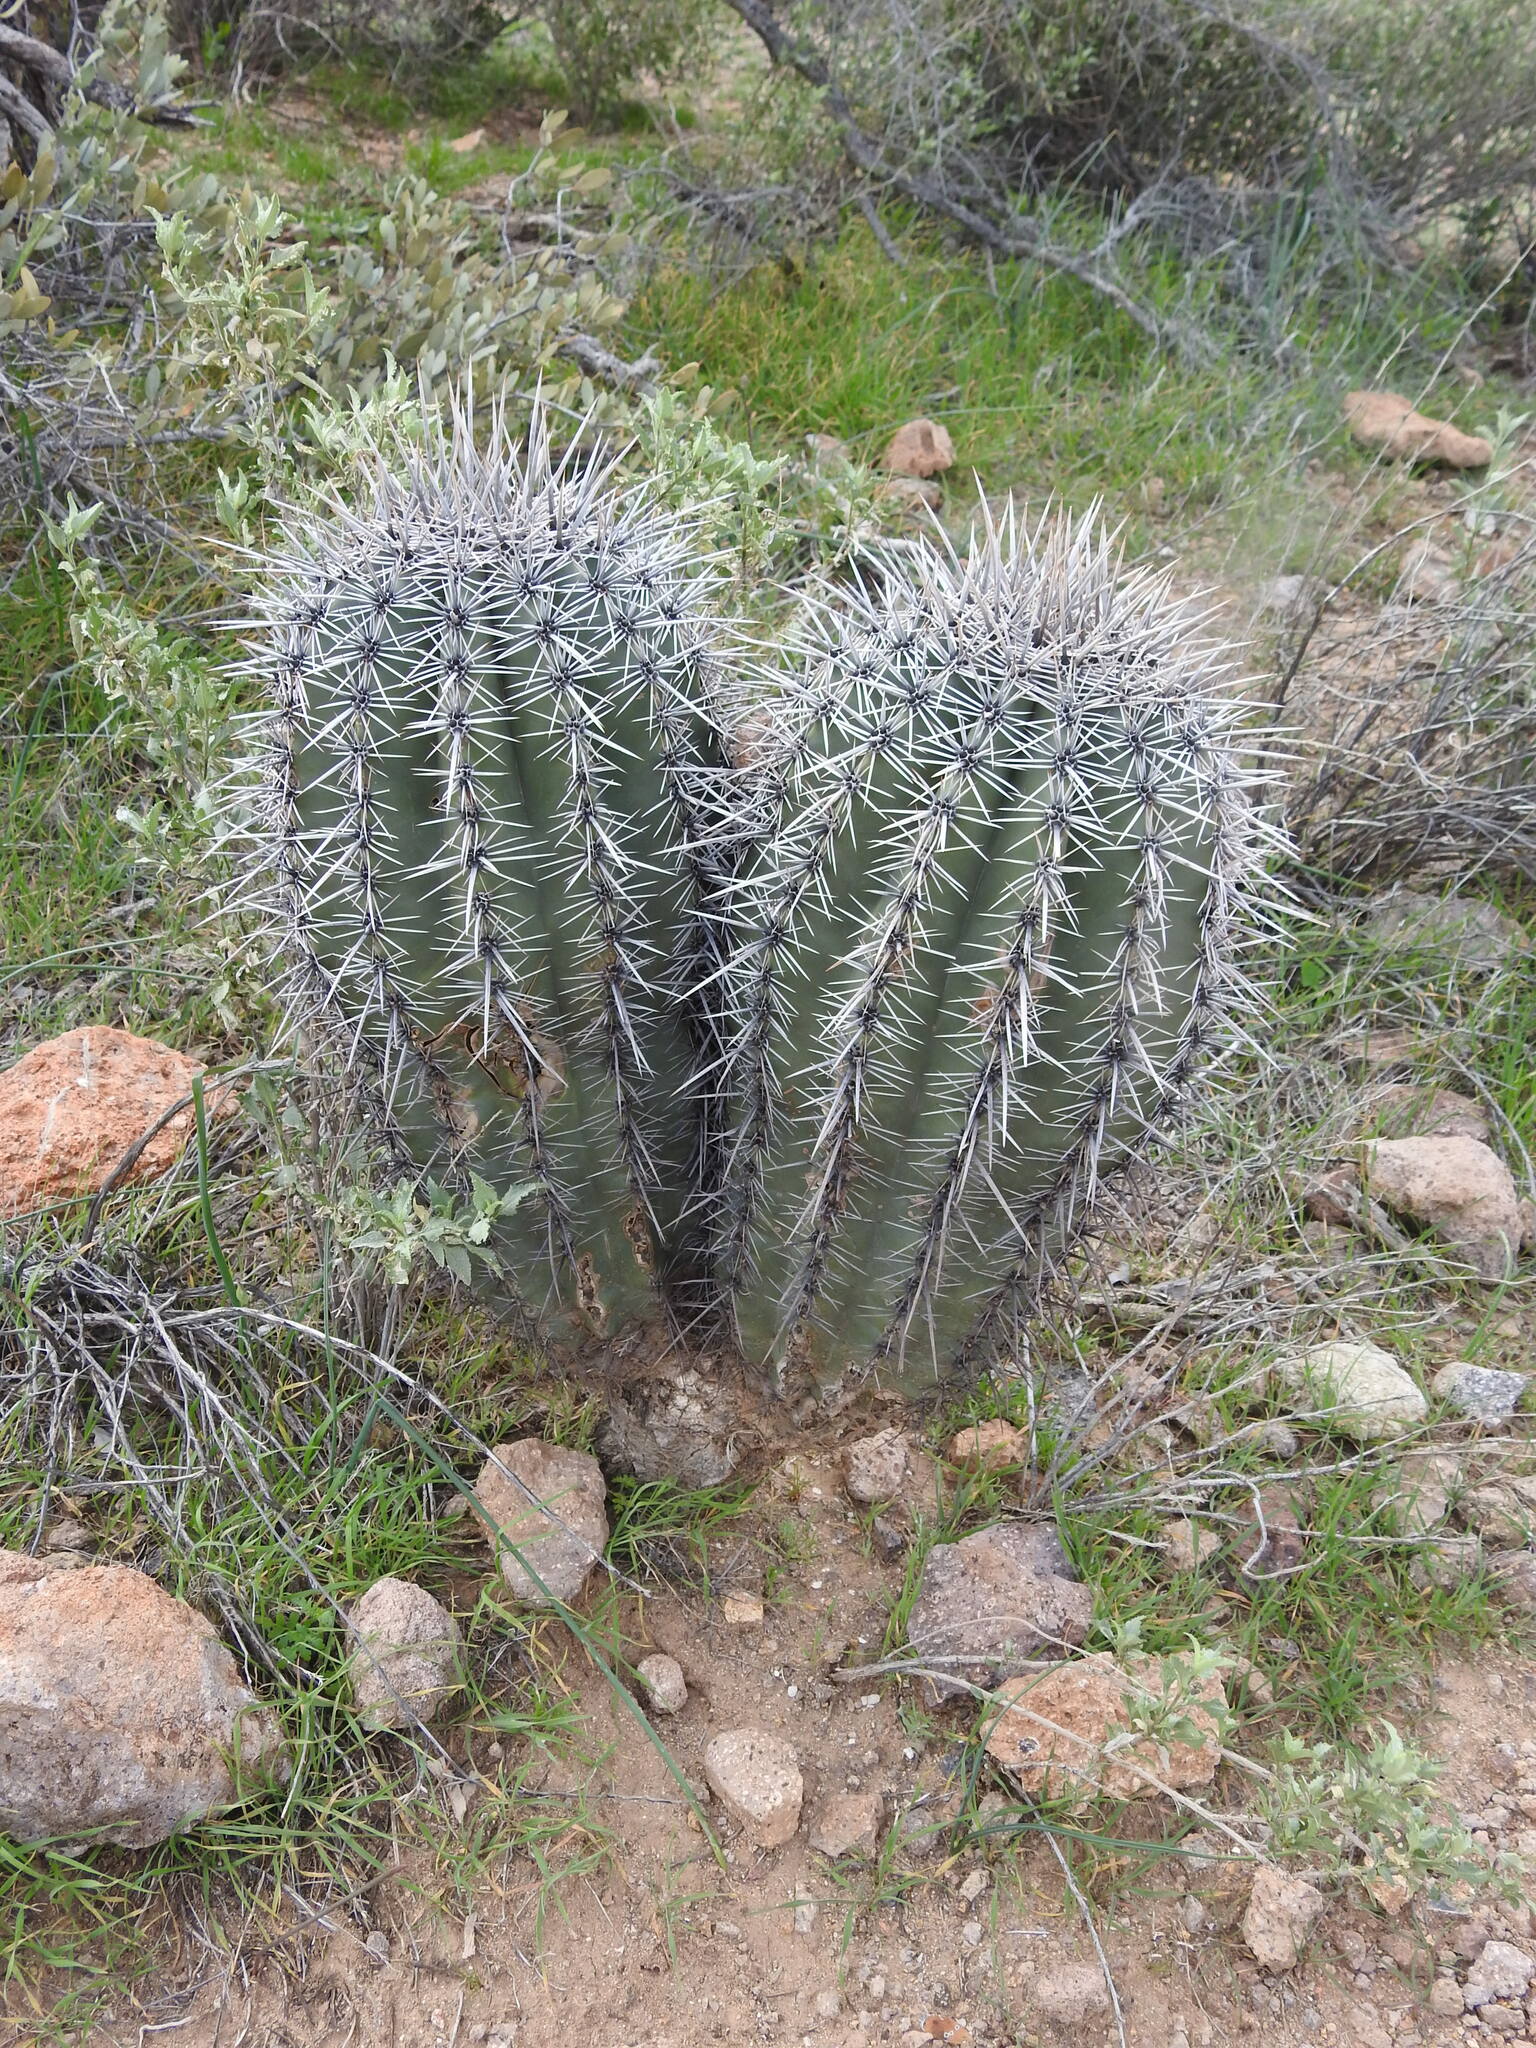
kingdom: Plantae
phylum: Tracheophyta
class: Magnoliopsida
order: Caryophyllales
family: Cactaceae
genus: Carnegiea
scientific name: Carnegiea gigantea
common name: Saguaro
